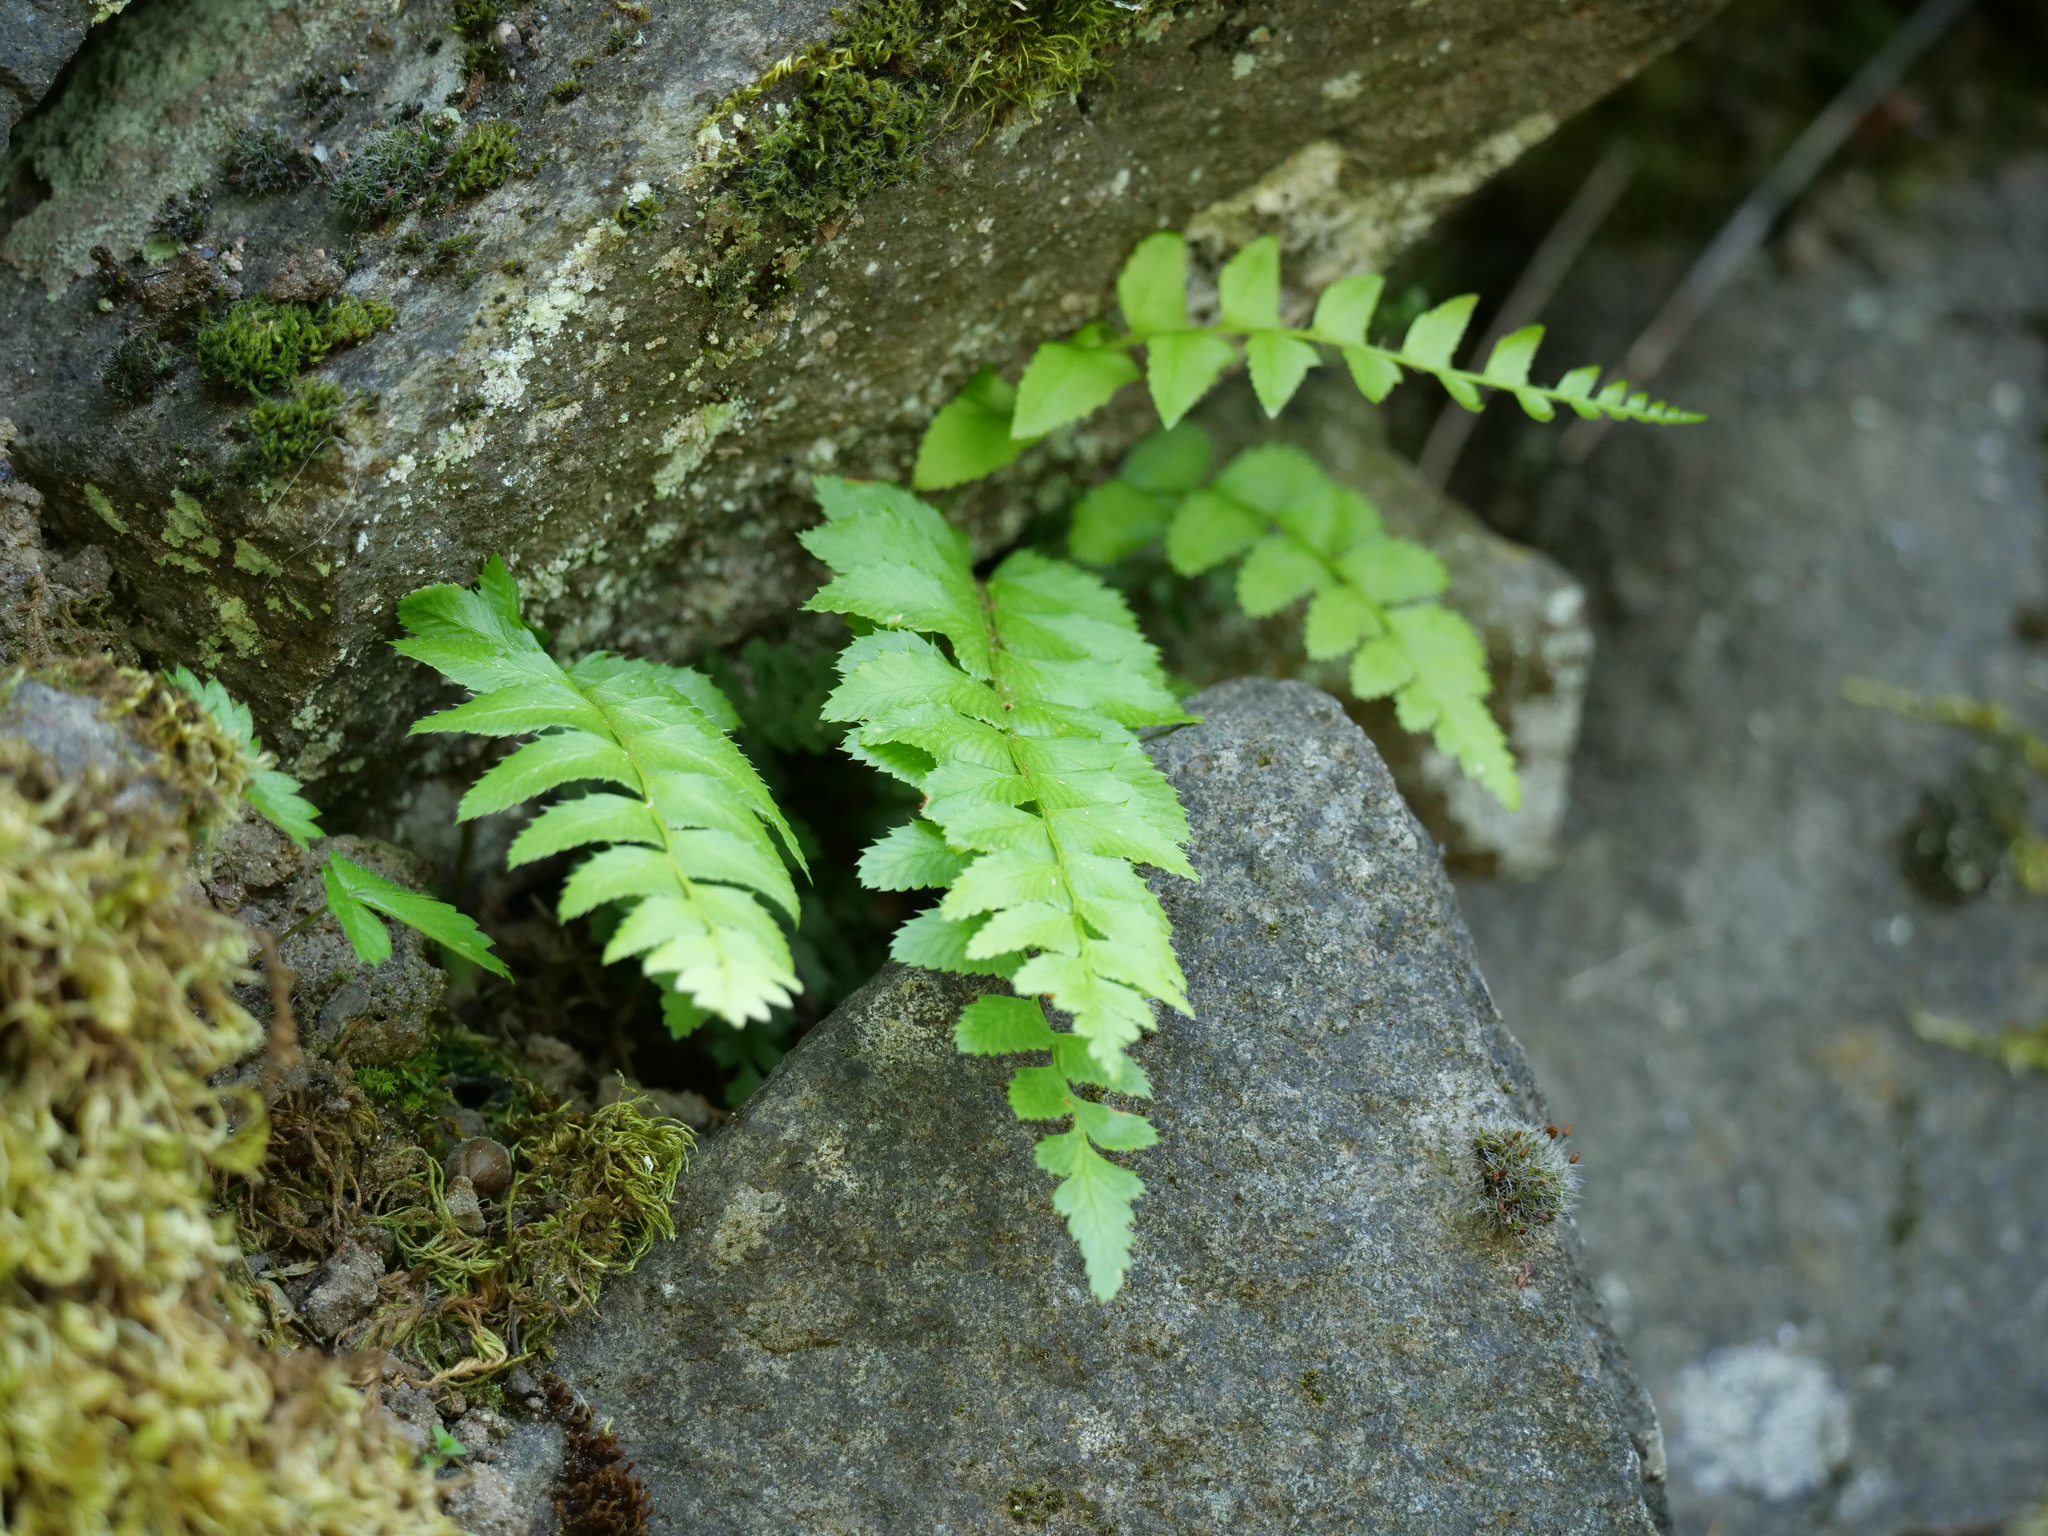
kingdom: Plantae
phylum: Tracheophyta
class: Polypodiopsida
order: Polypodiales
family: Dryopteridaceae
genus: Polystichum
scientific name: Polystichum munitum
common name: Western sword-fern
